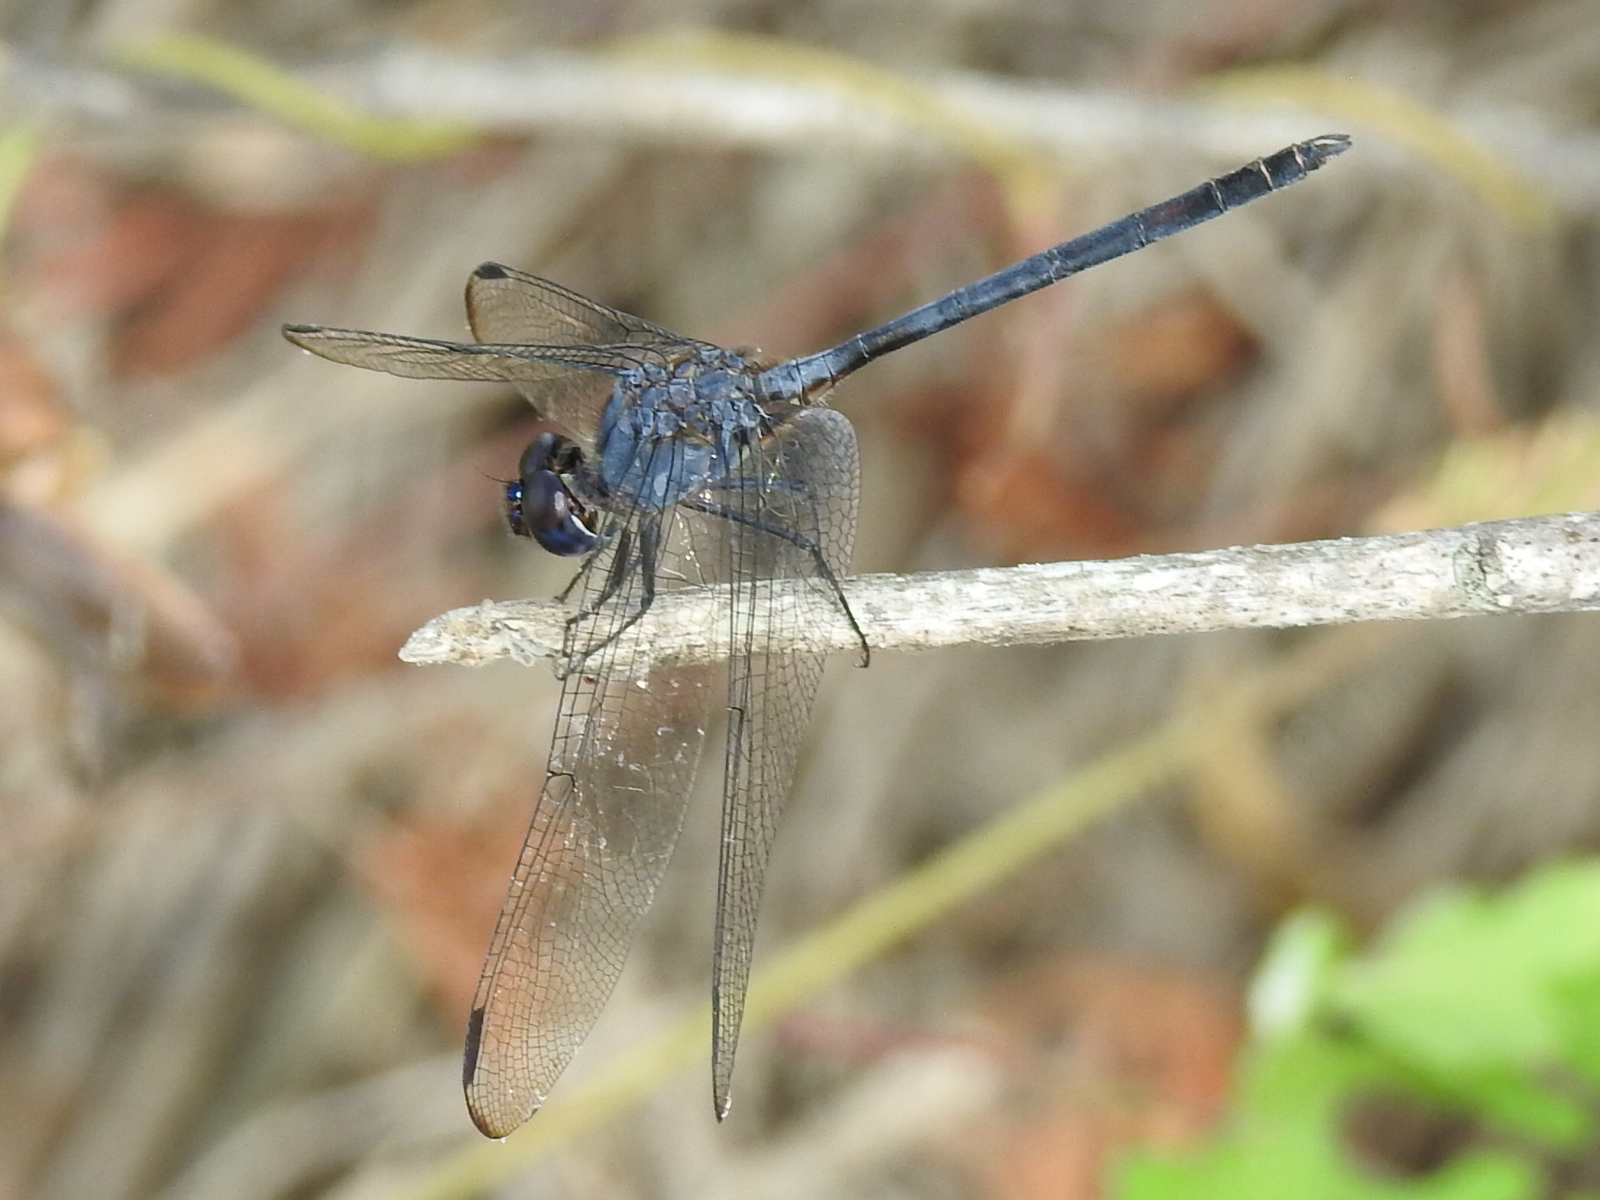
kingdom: Animalia
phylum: Arthropoda
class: Insecta
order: Odonata
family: Libellulidae
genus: Dythemis
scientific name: Dythemis nigrescens
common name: Black setwing
